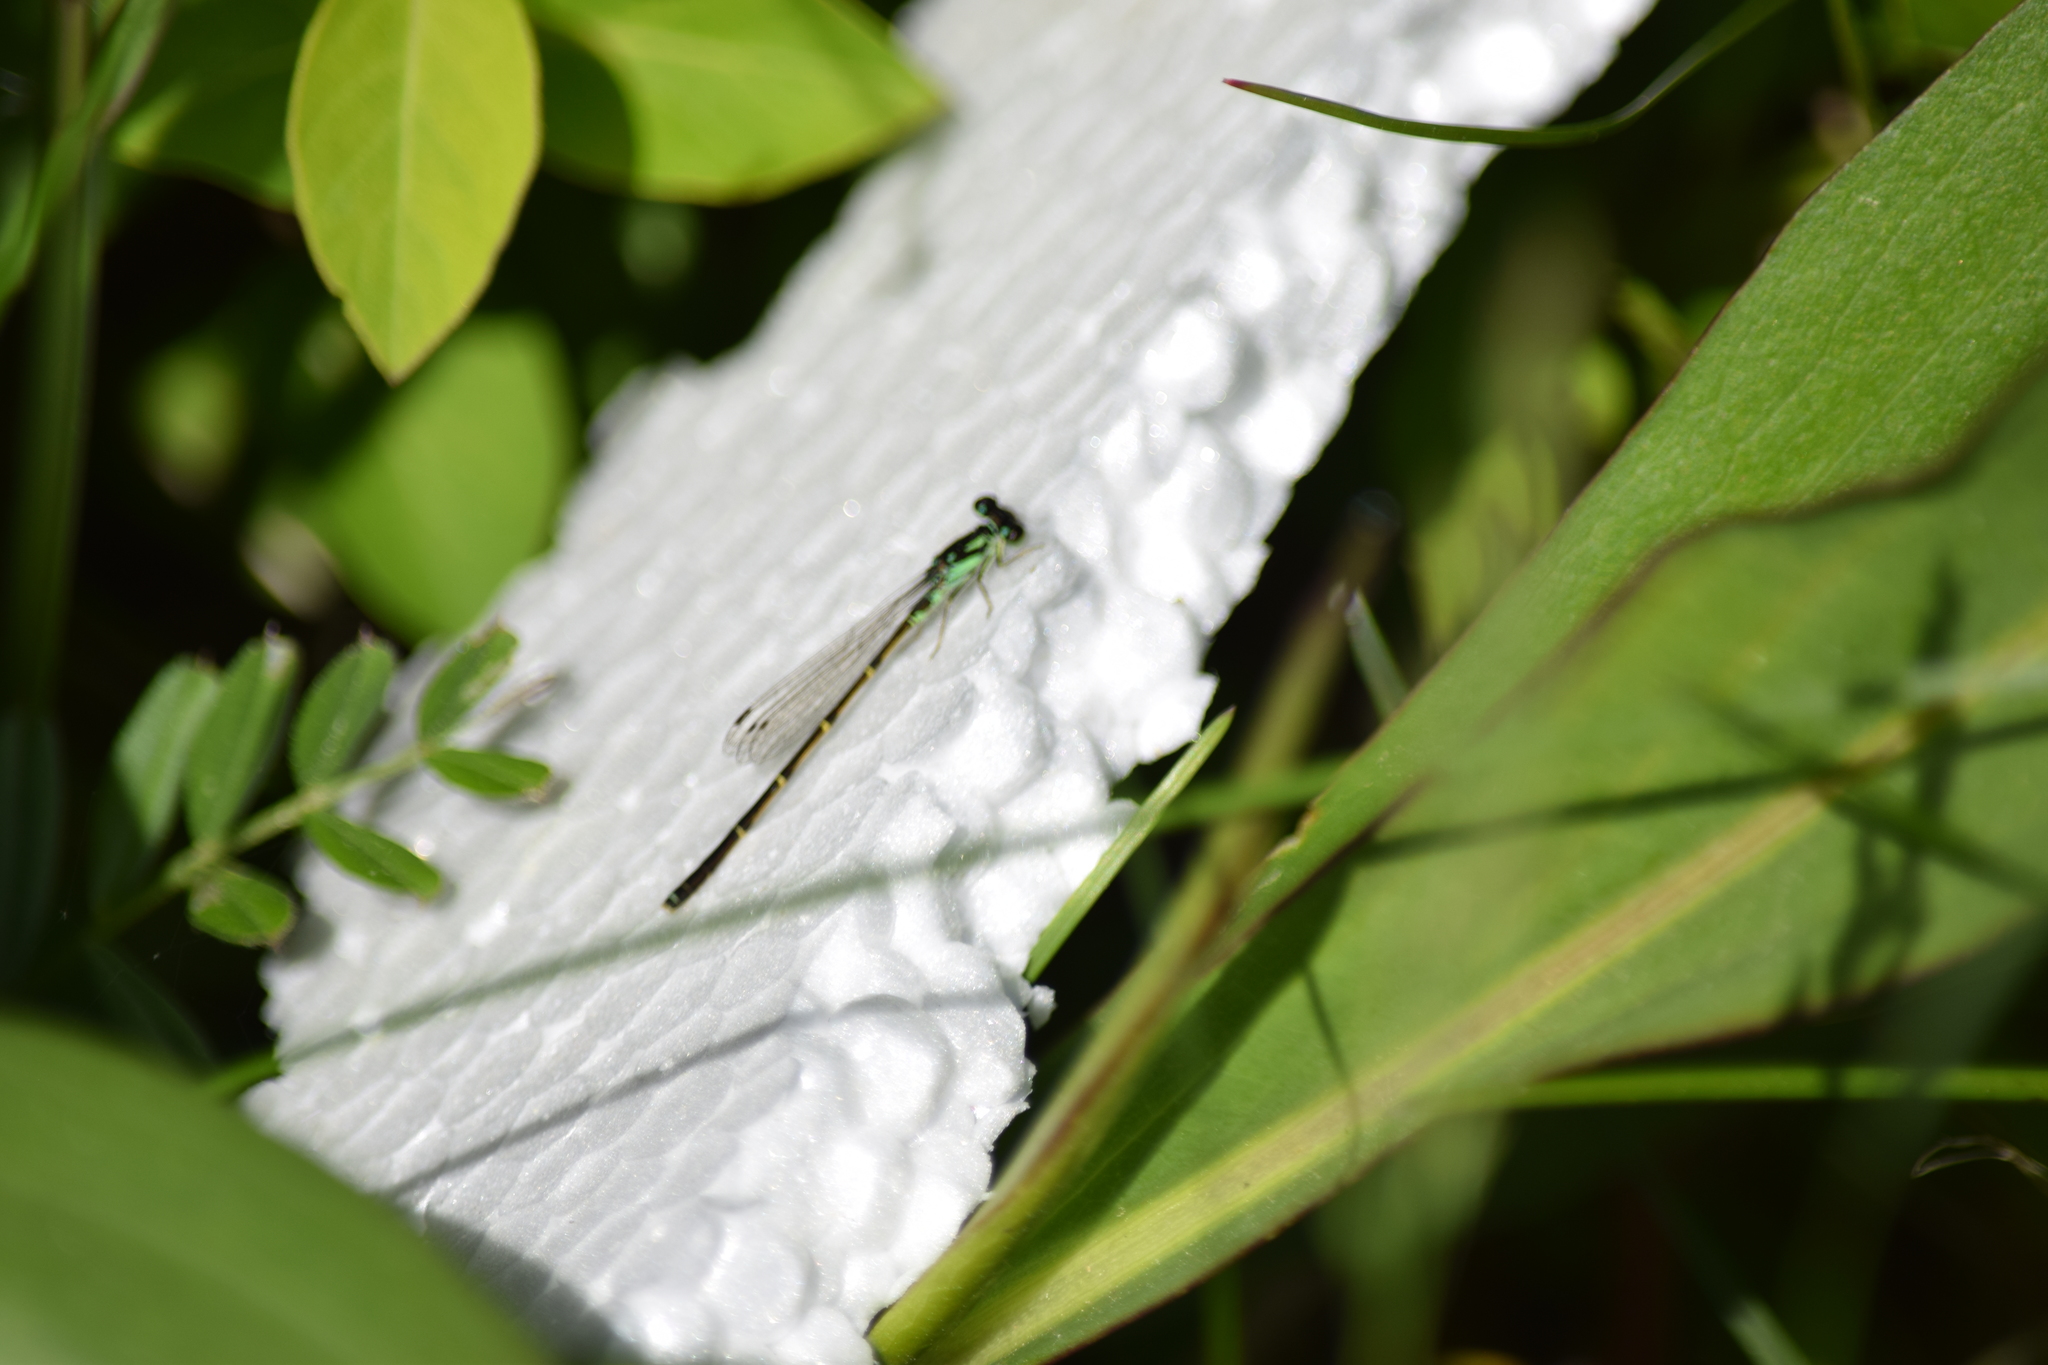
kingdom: Animalia
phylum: Arthropoda
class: Insecta
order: Odonata
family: Coenagrionidae
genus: Ischnura
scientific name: Ischnura posita
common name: Fragile forktail
